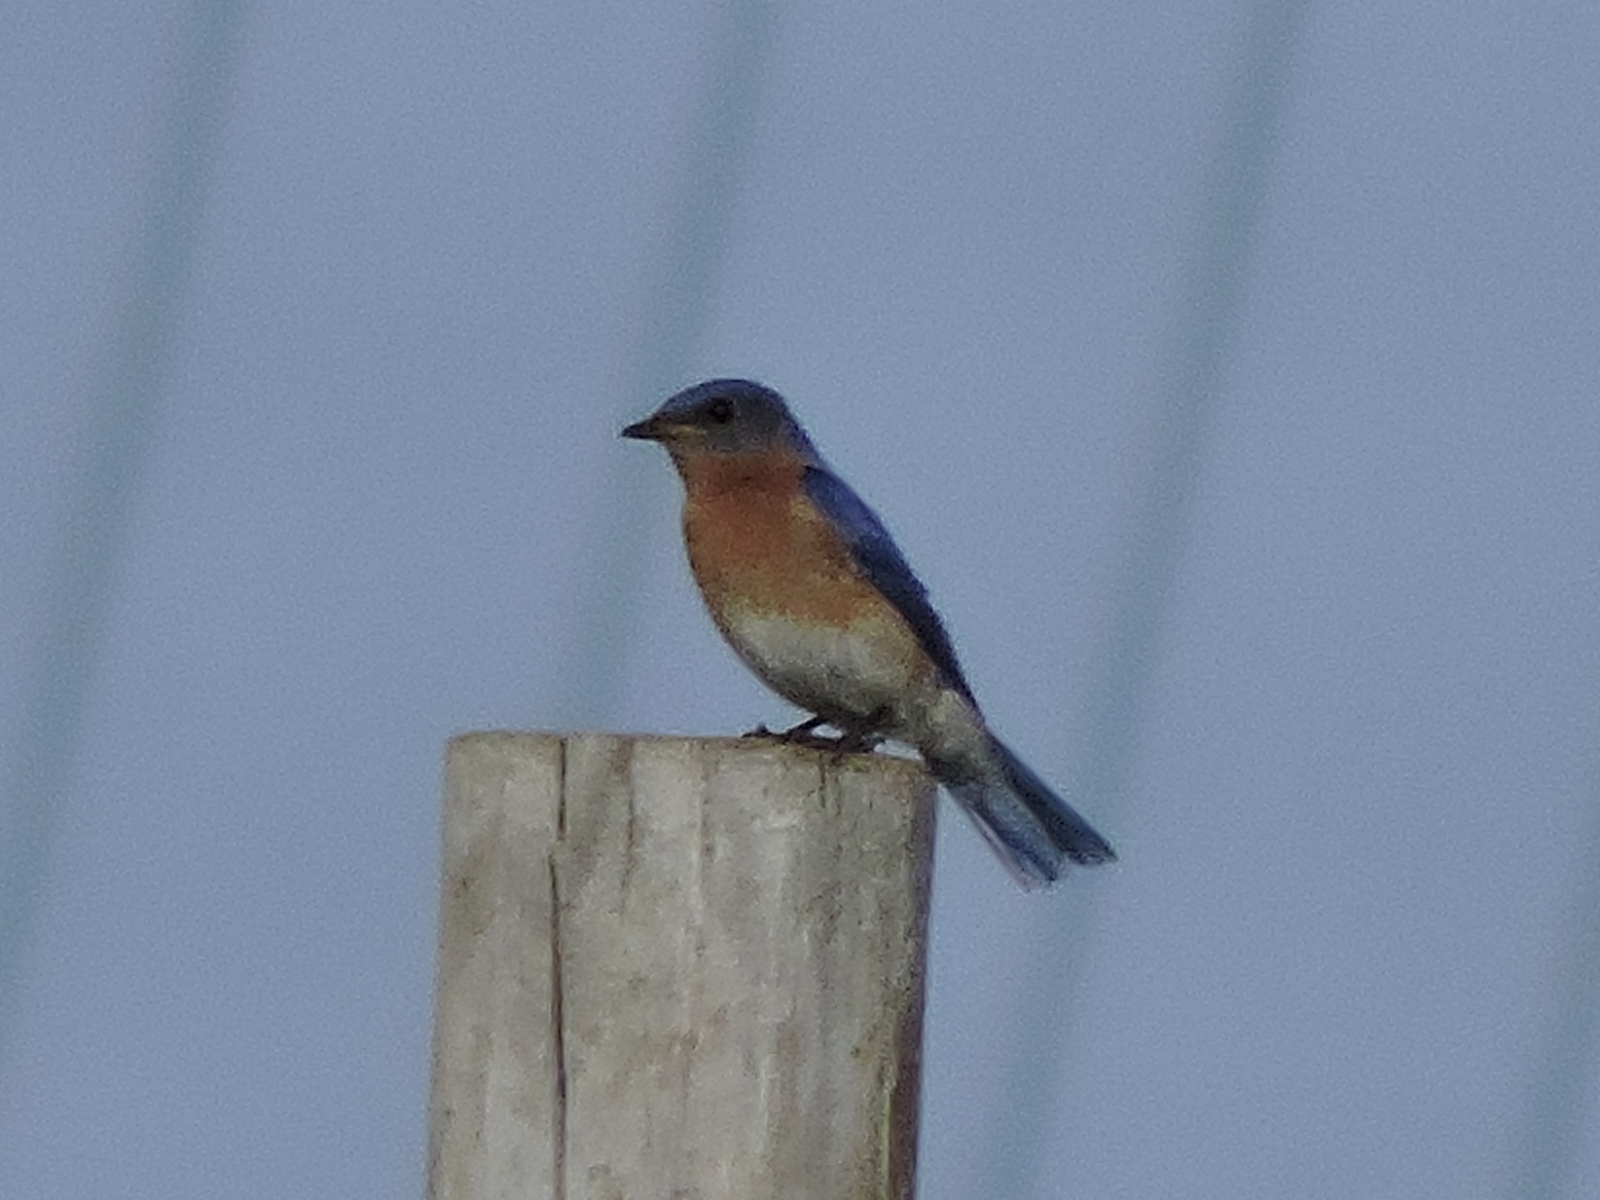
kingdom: Animalia
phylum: Chordata
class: Aves
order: Passeriformes
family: Turdidae
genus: Sialia
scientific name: Sialia sialis
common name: Eastern bluebird
